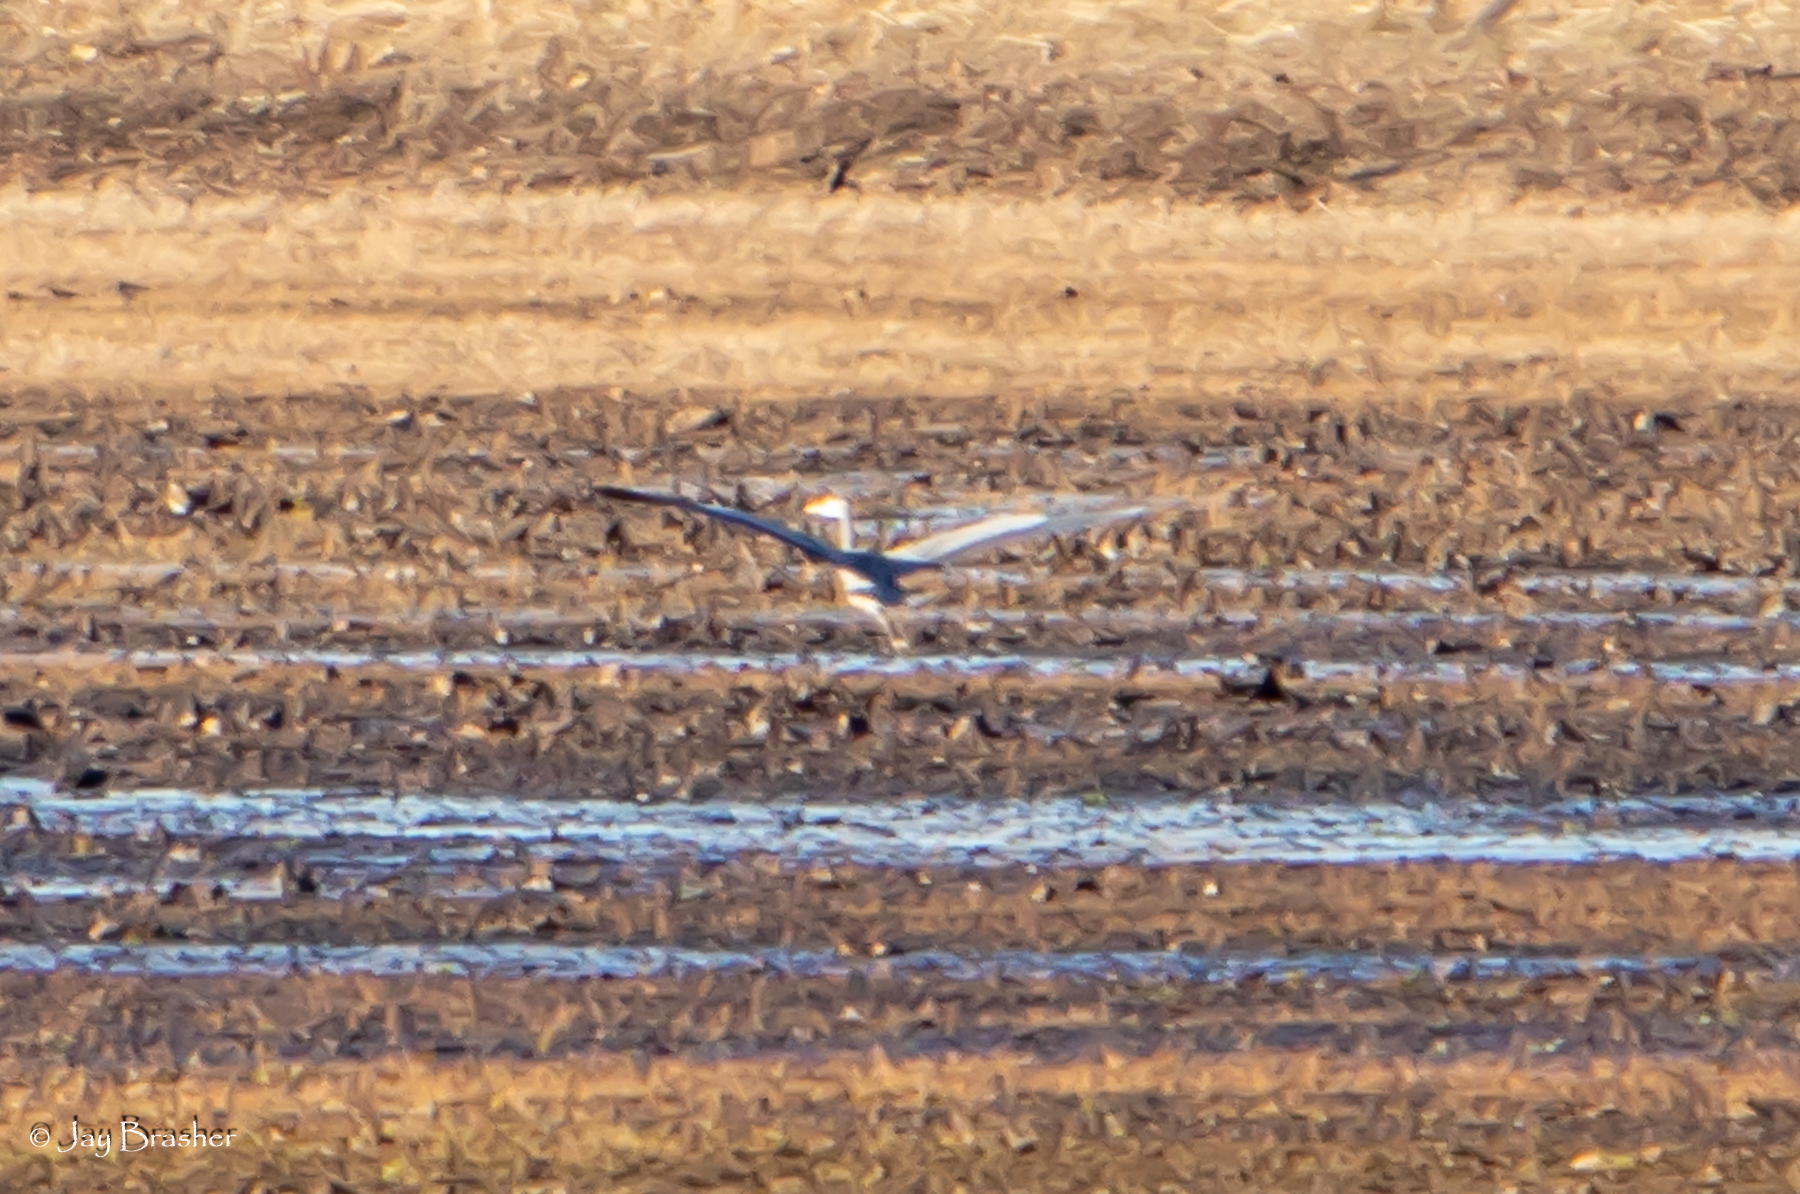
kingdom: Animalia
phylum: Chordata
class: Aves
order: Pelecaniformes
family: Ardeidae
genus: Ardea
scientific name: Ardea herodias
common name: Great blue heron
